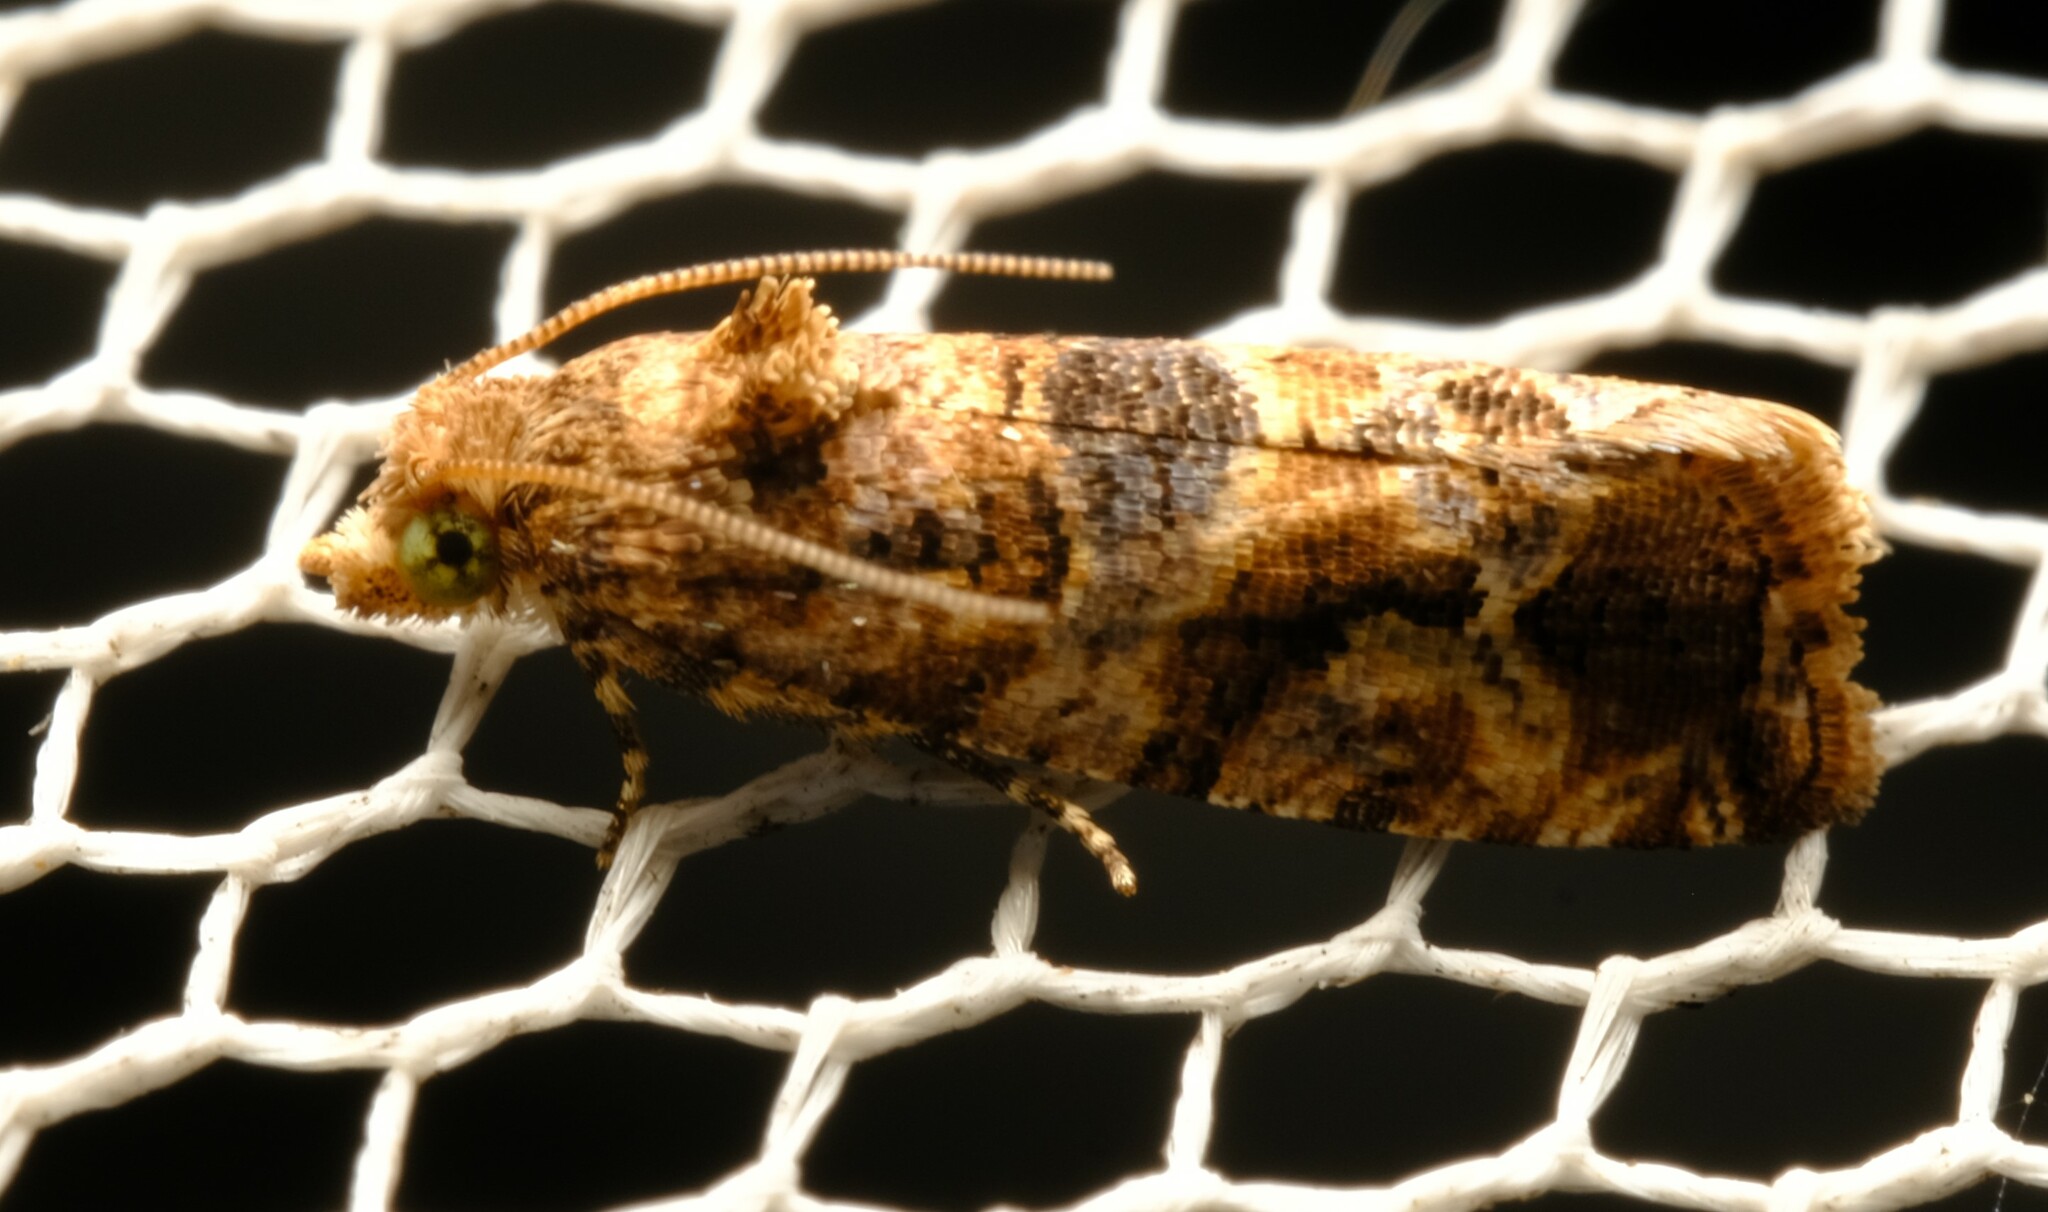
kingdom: Animalia
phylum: Arthropoda
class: Insecta
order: Lepidoptera
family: Tortricidae
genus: Lobesia
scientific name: Lobesia transtrifera
